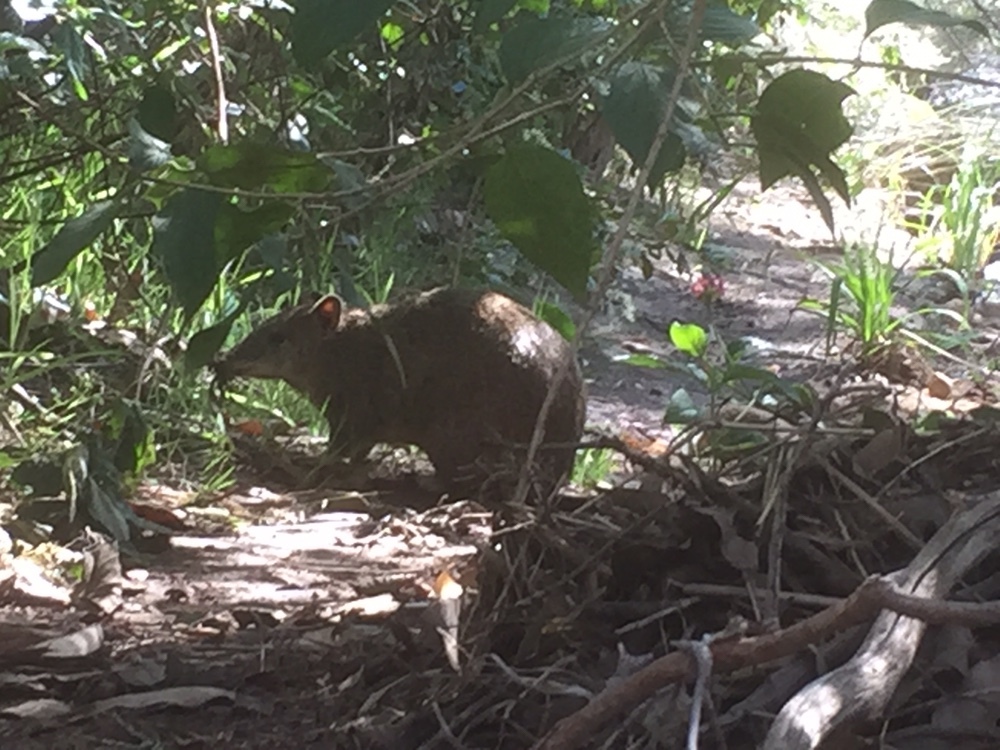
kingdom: Animalia
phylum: Chordata
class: Mammalia
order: Peramelemorphia
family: Peramelidae
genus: Isoodon
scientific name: Isoodon fusciventer
